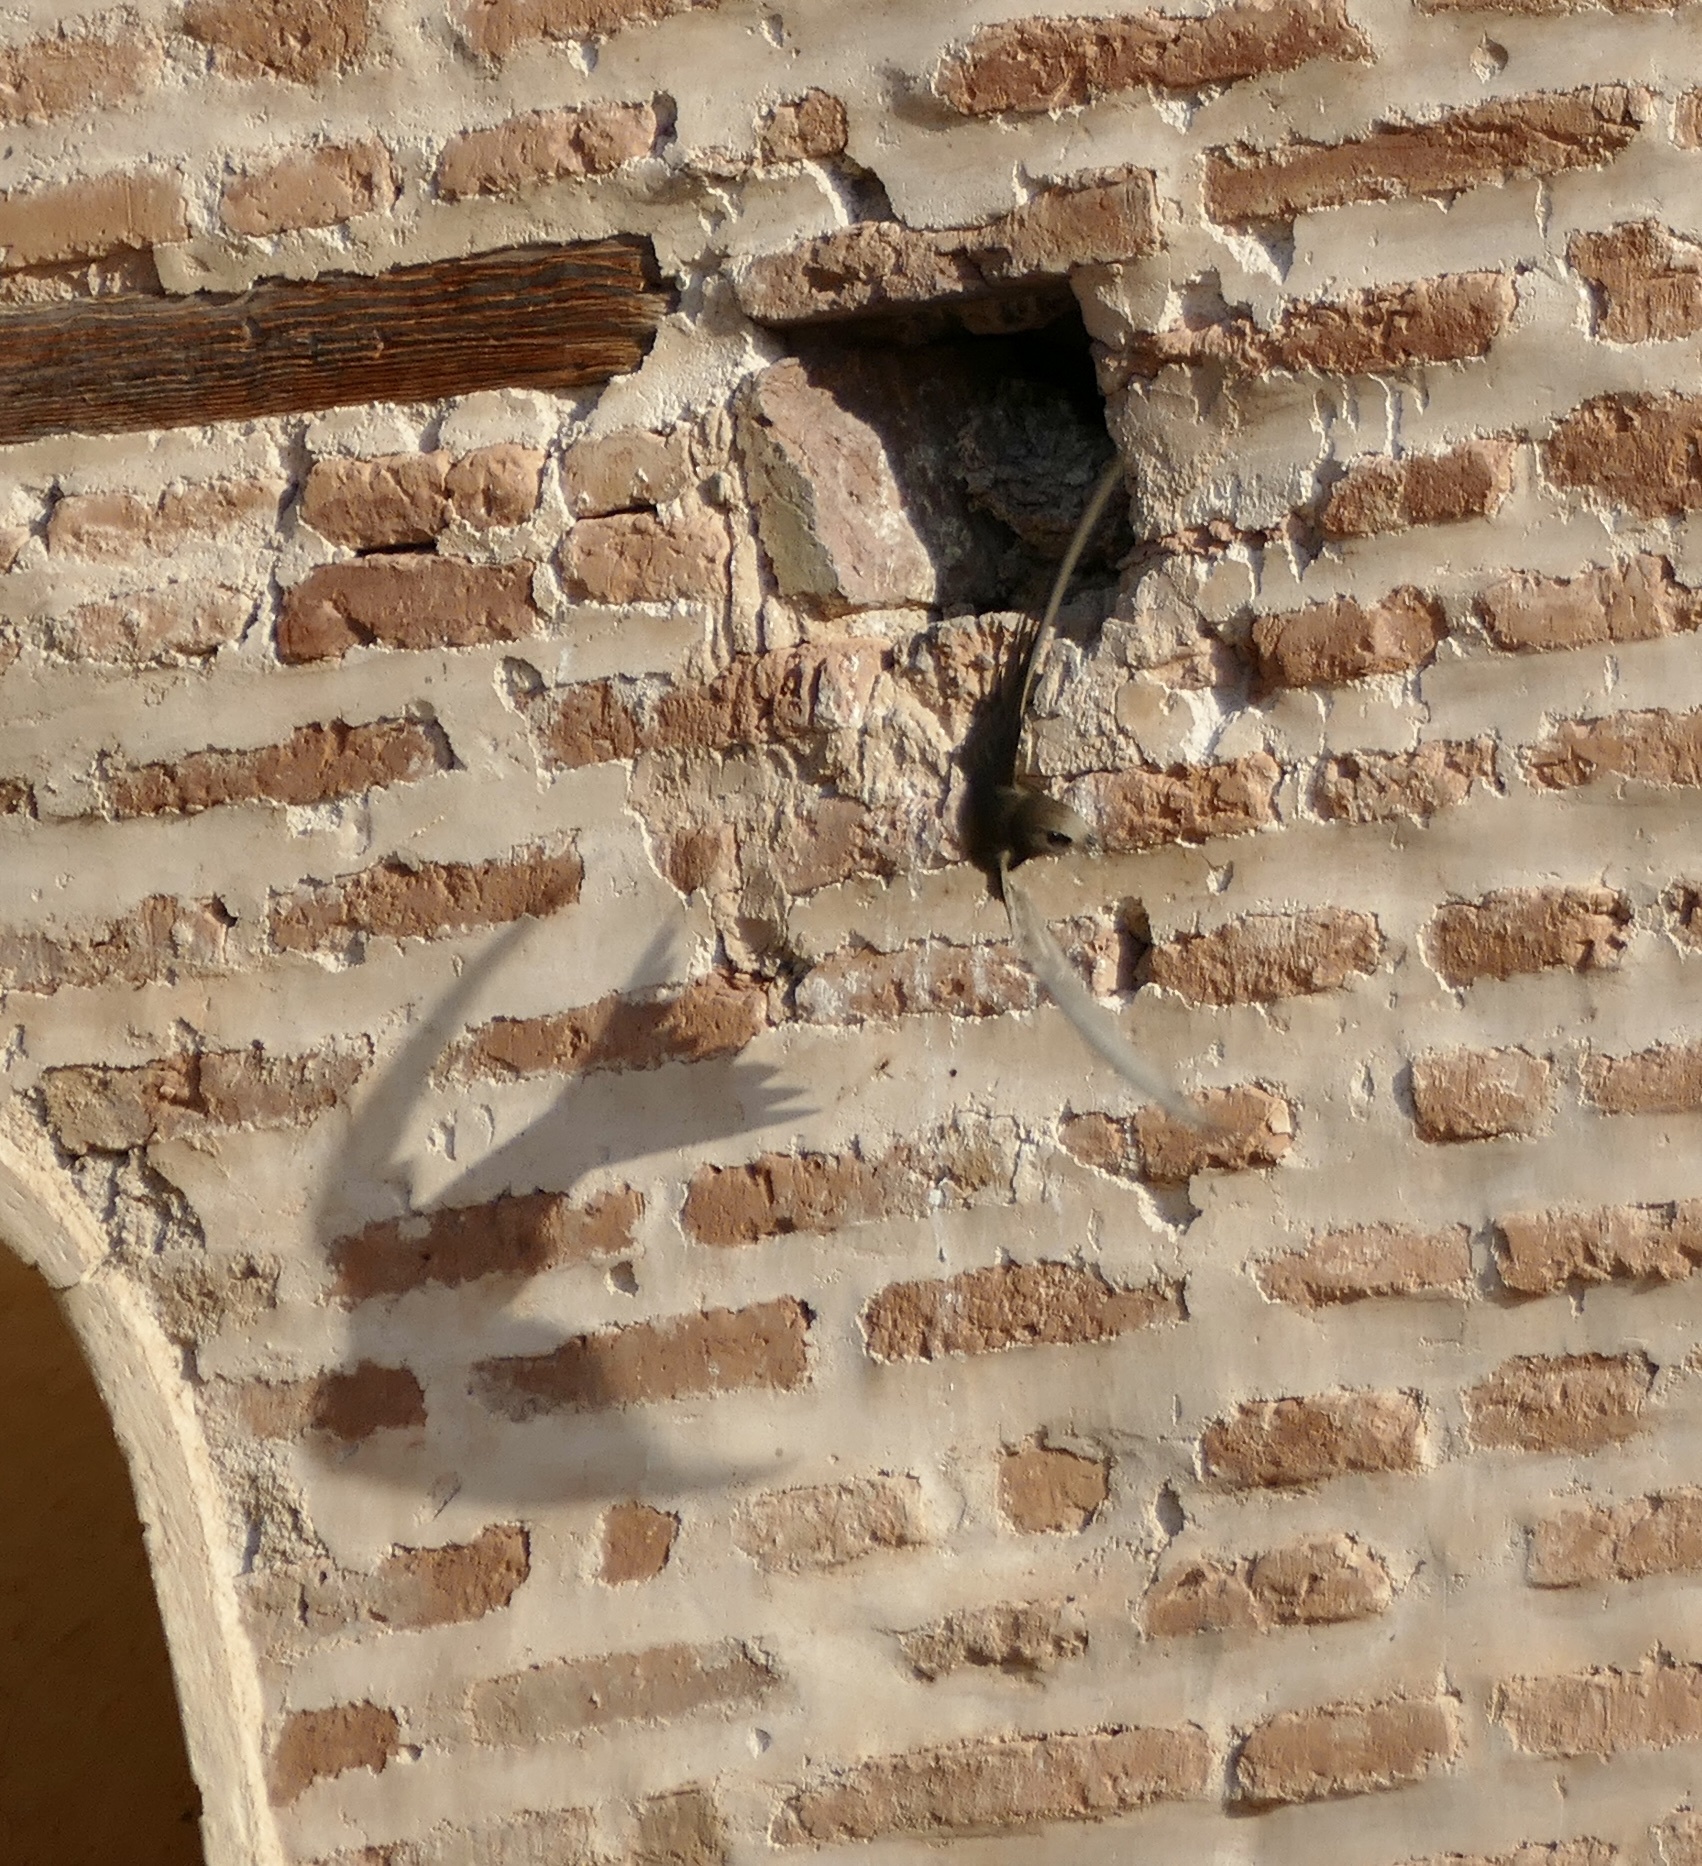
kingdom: Animalia
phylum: Chordata
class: Aves
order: Apodiformes
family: Apodidae
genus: Apus
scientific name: Apus pallidus
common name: Pallid swift
